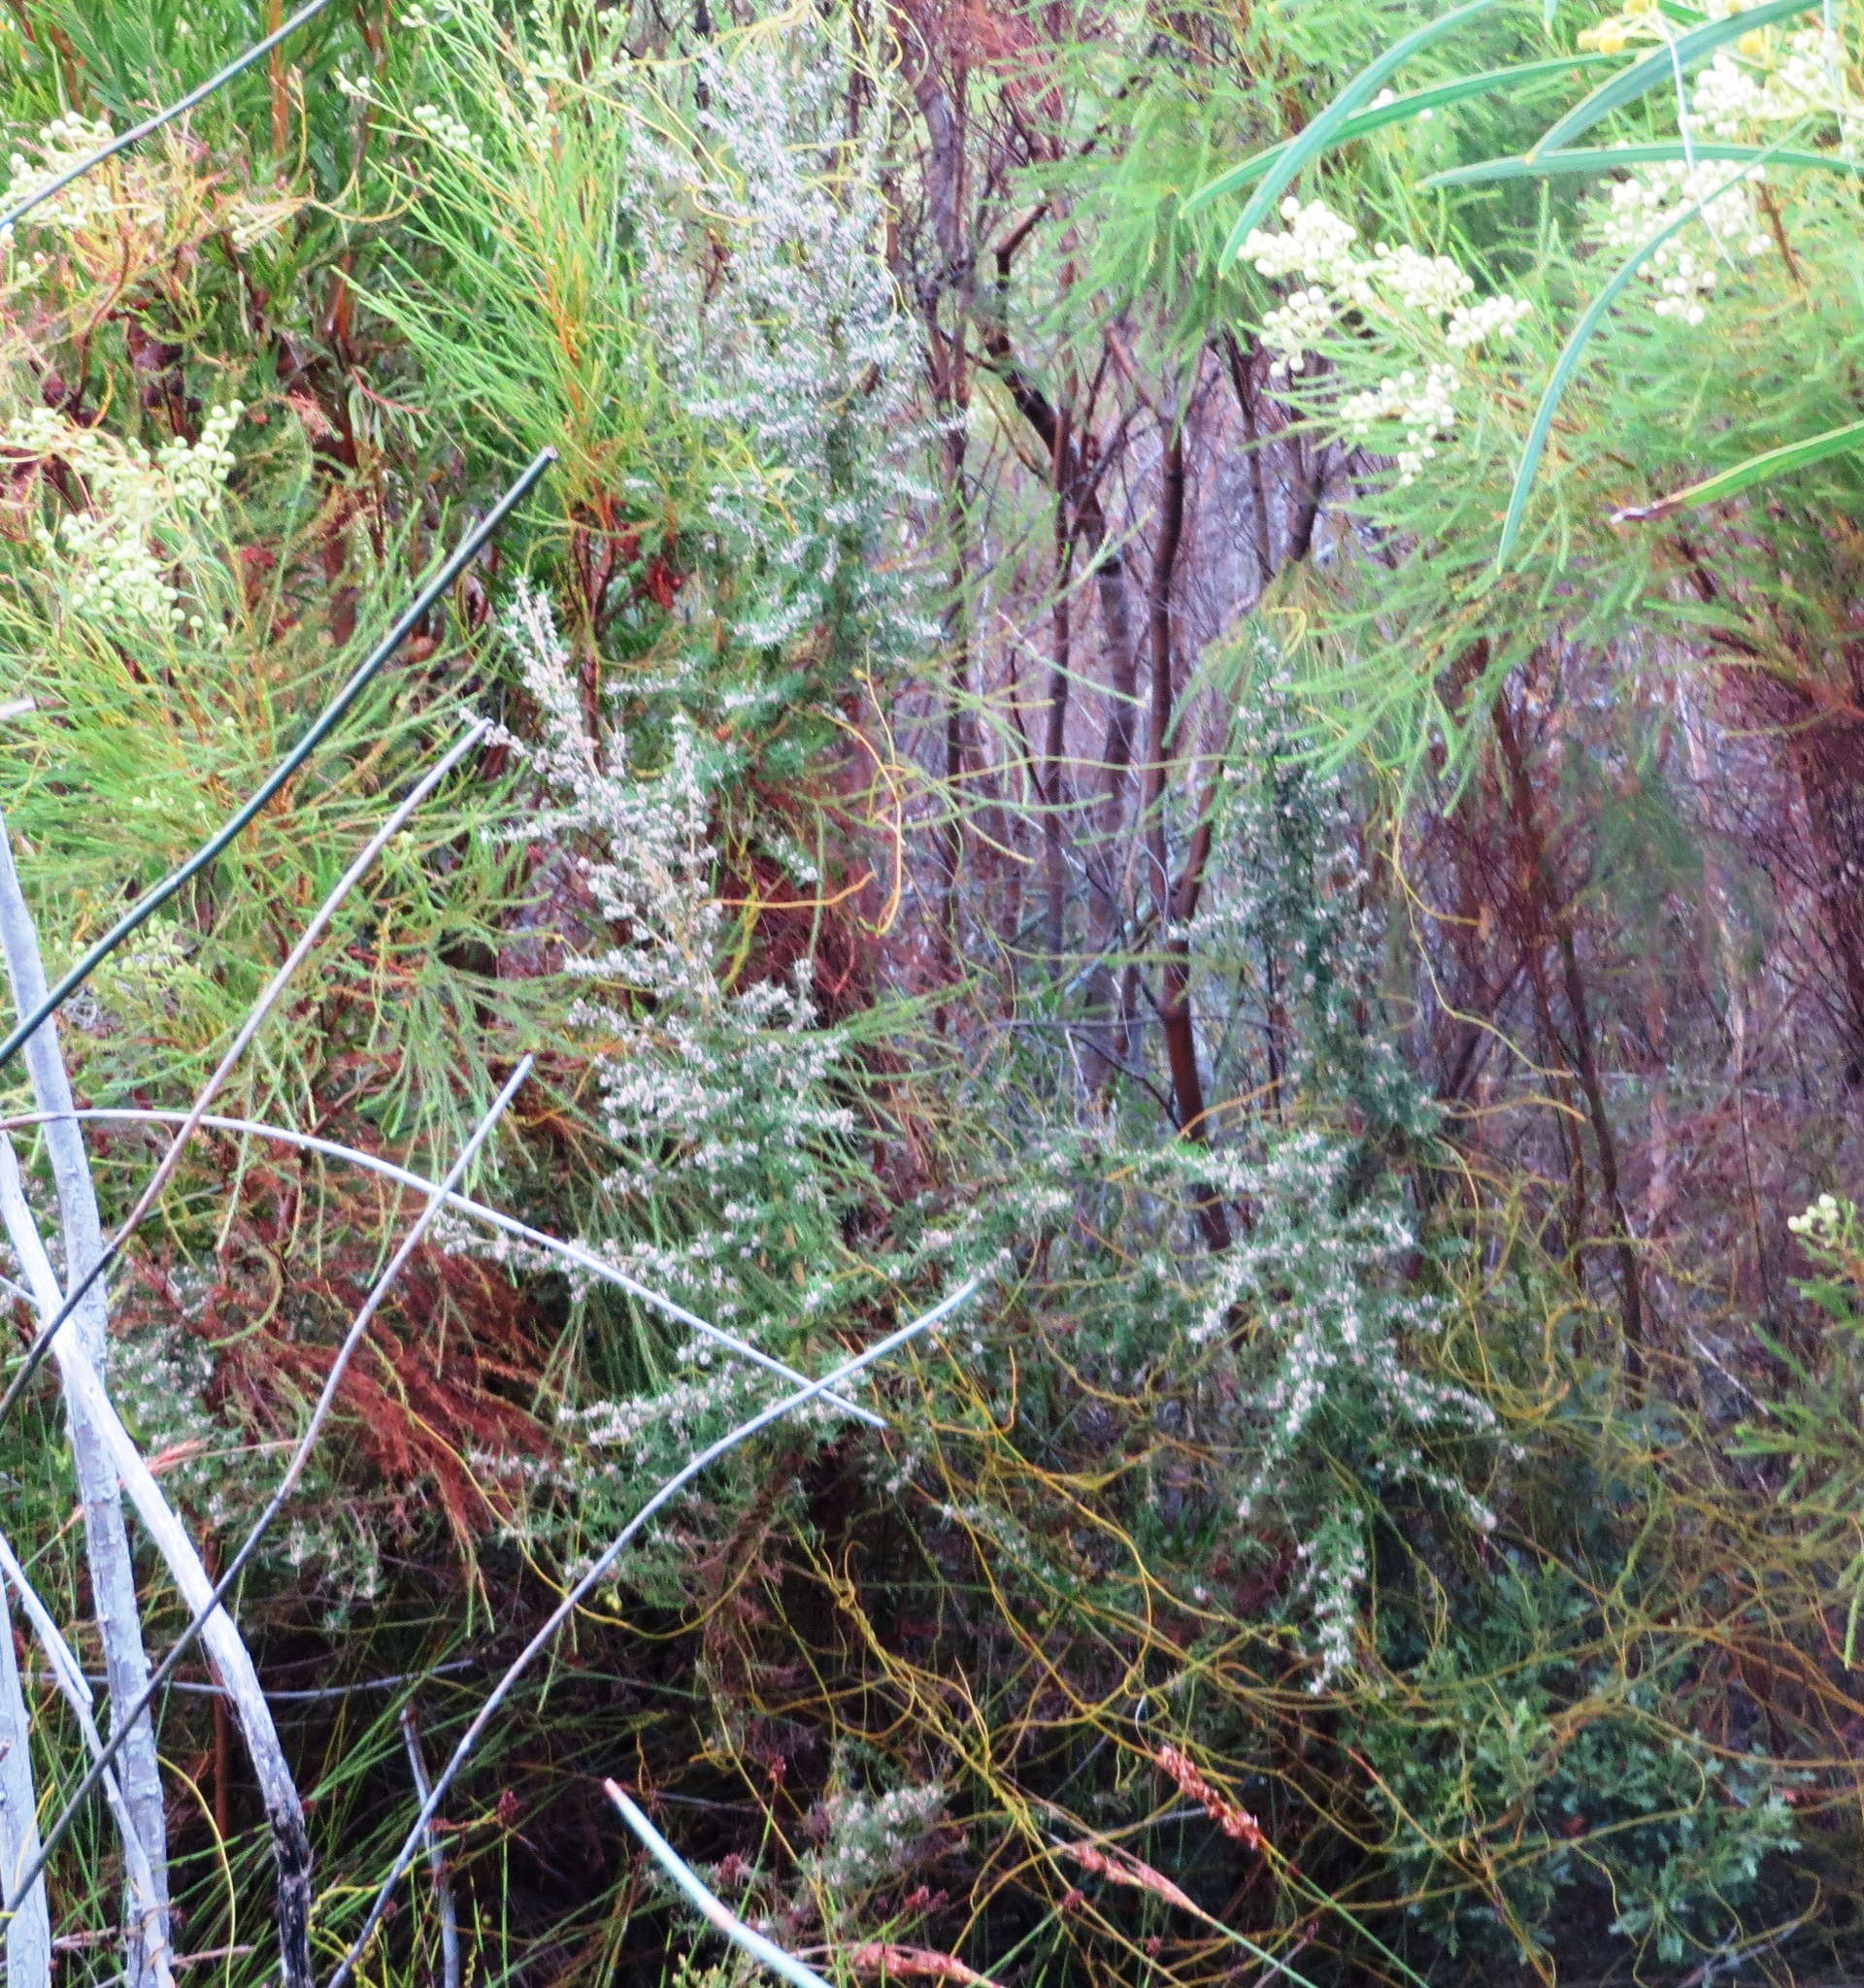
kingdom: Plantae
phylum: Tracheophyta
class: Magnoliopsida
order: Cornales
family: Grubbiaceae
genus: Grubbia
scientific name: Grubbia rosmarinifolia
